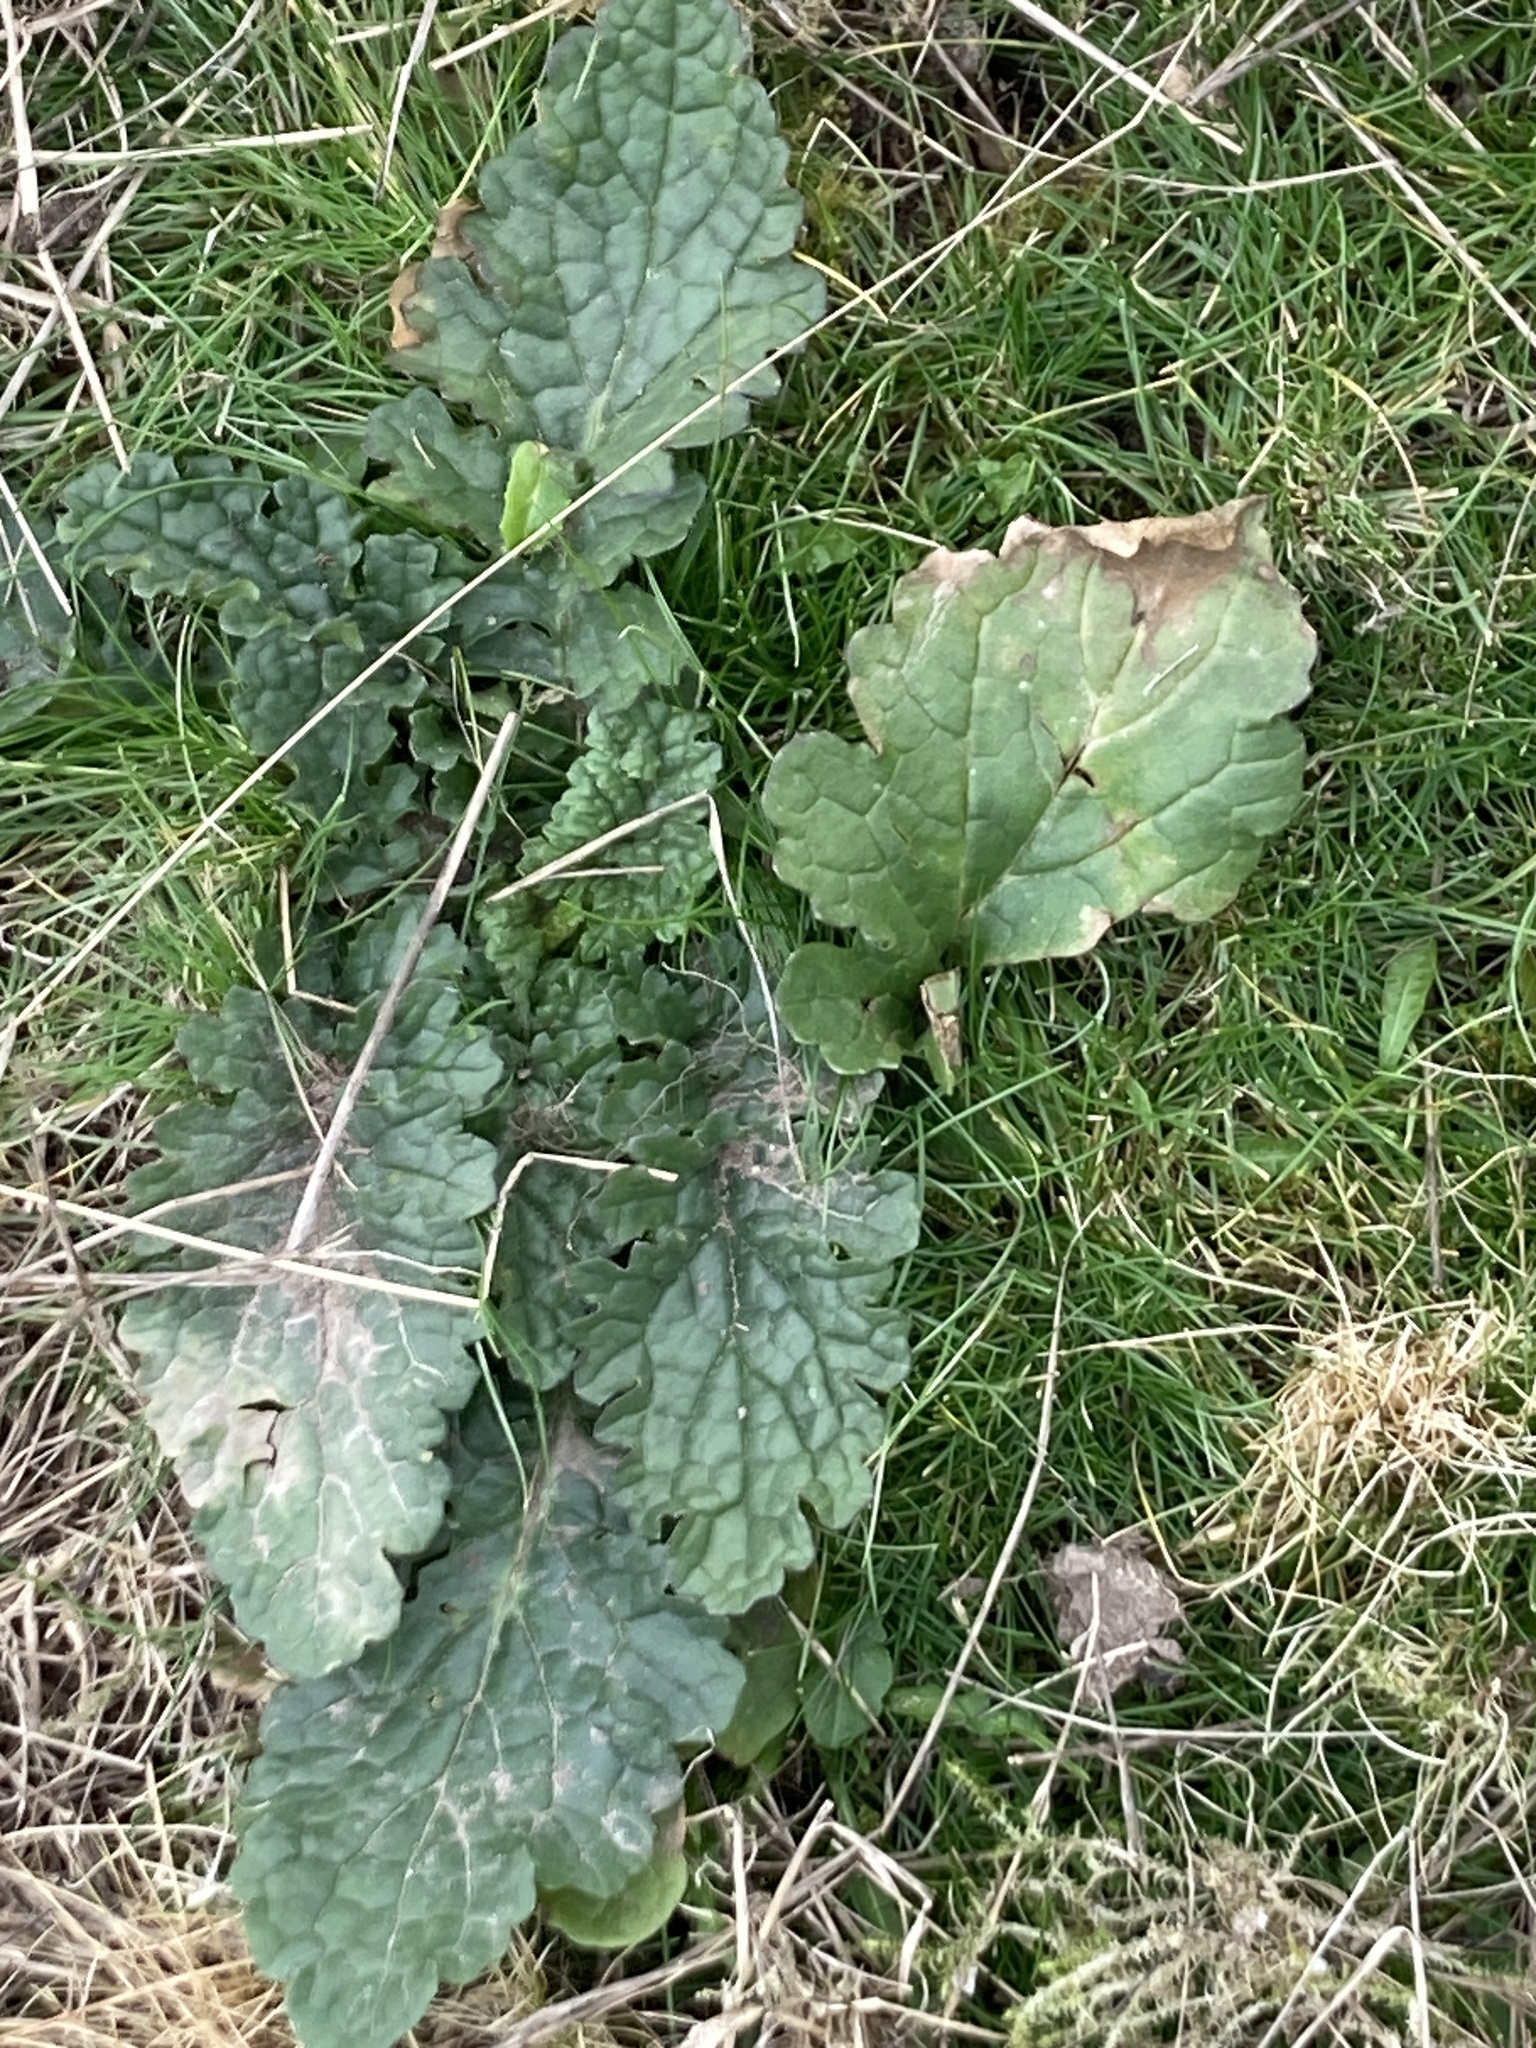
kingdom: Plantae
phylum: Tracheophyta
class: Magnoliopsida
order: Asterales
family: Asteraceae
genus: Jacobaea
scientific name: Jacobaea vulgaris
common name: Stinking willie
